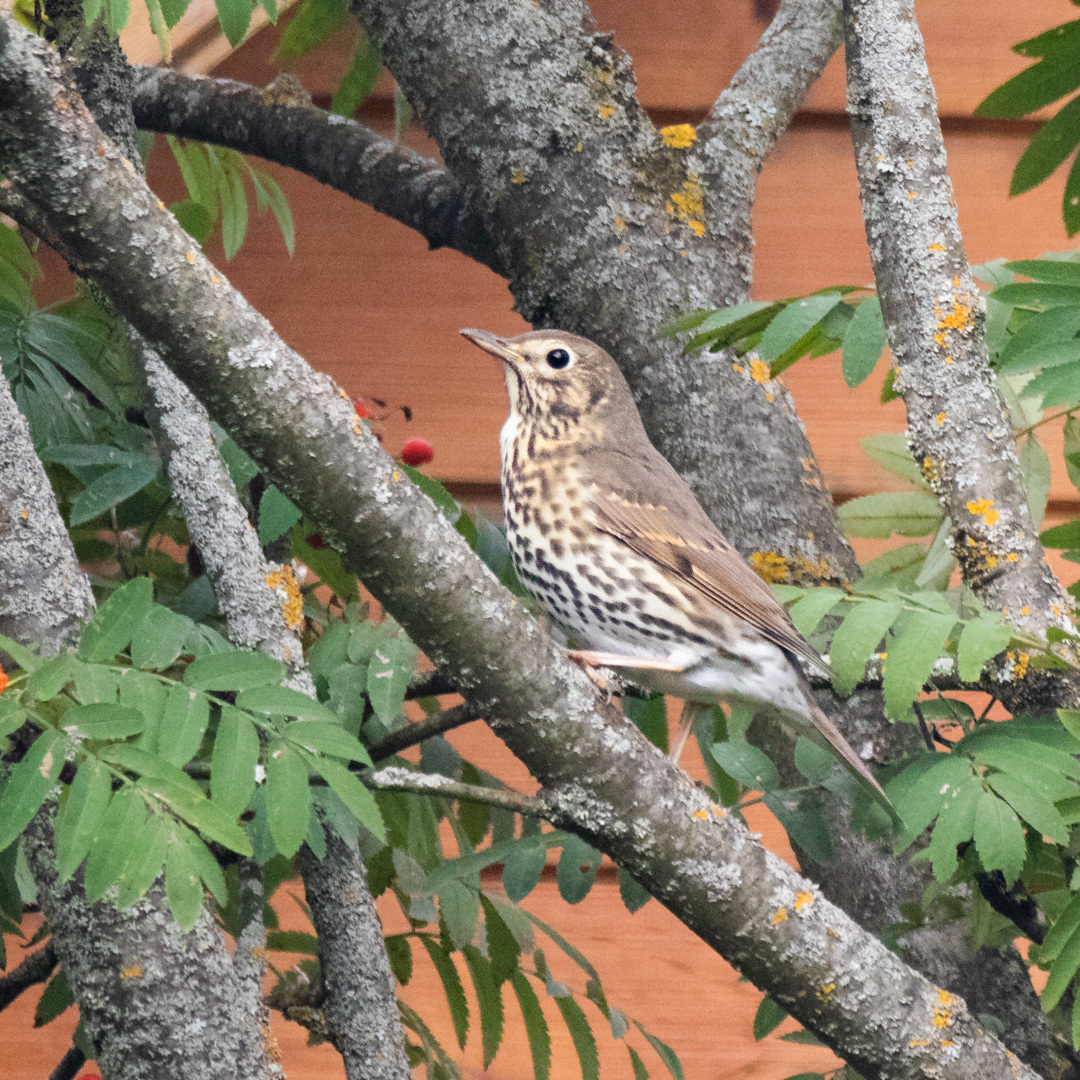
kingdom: Animalia
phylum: Chordata
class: Aves
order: Passeriformes
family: Turdidae
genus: Turdus
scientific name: Turdus philomelos
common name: Song thrush
